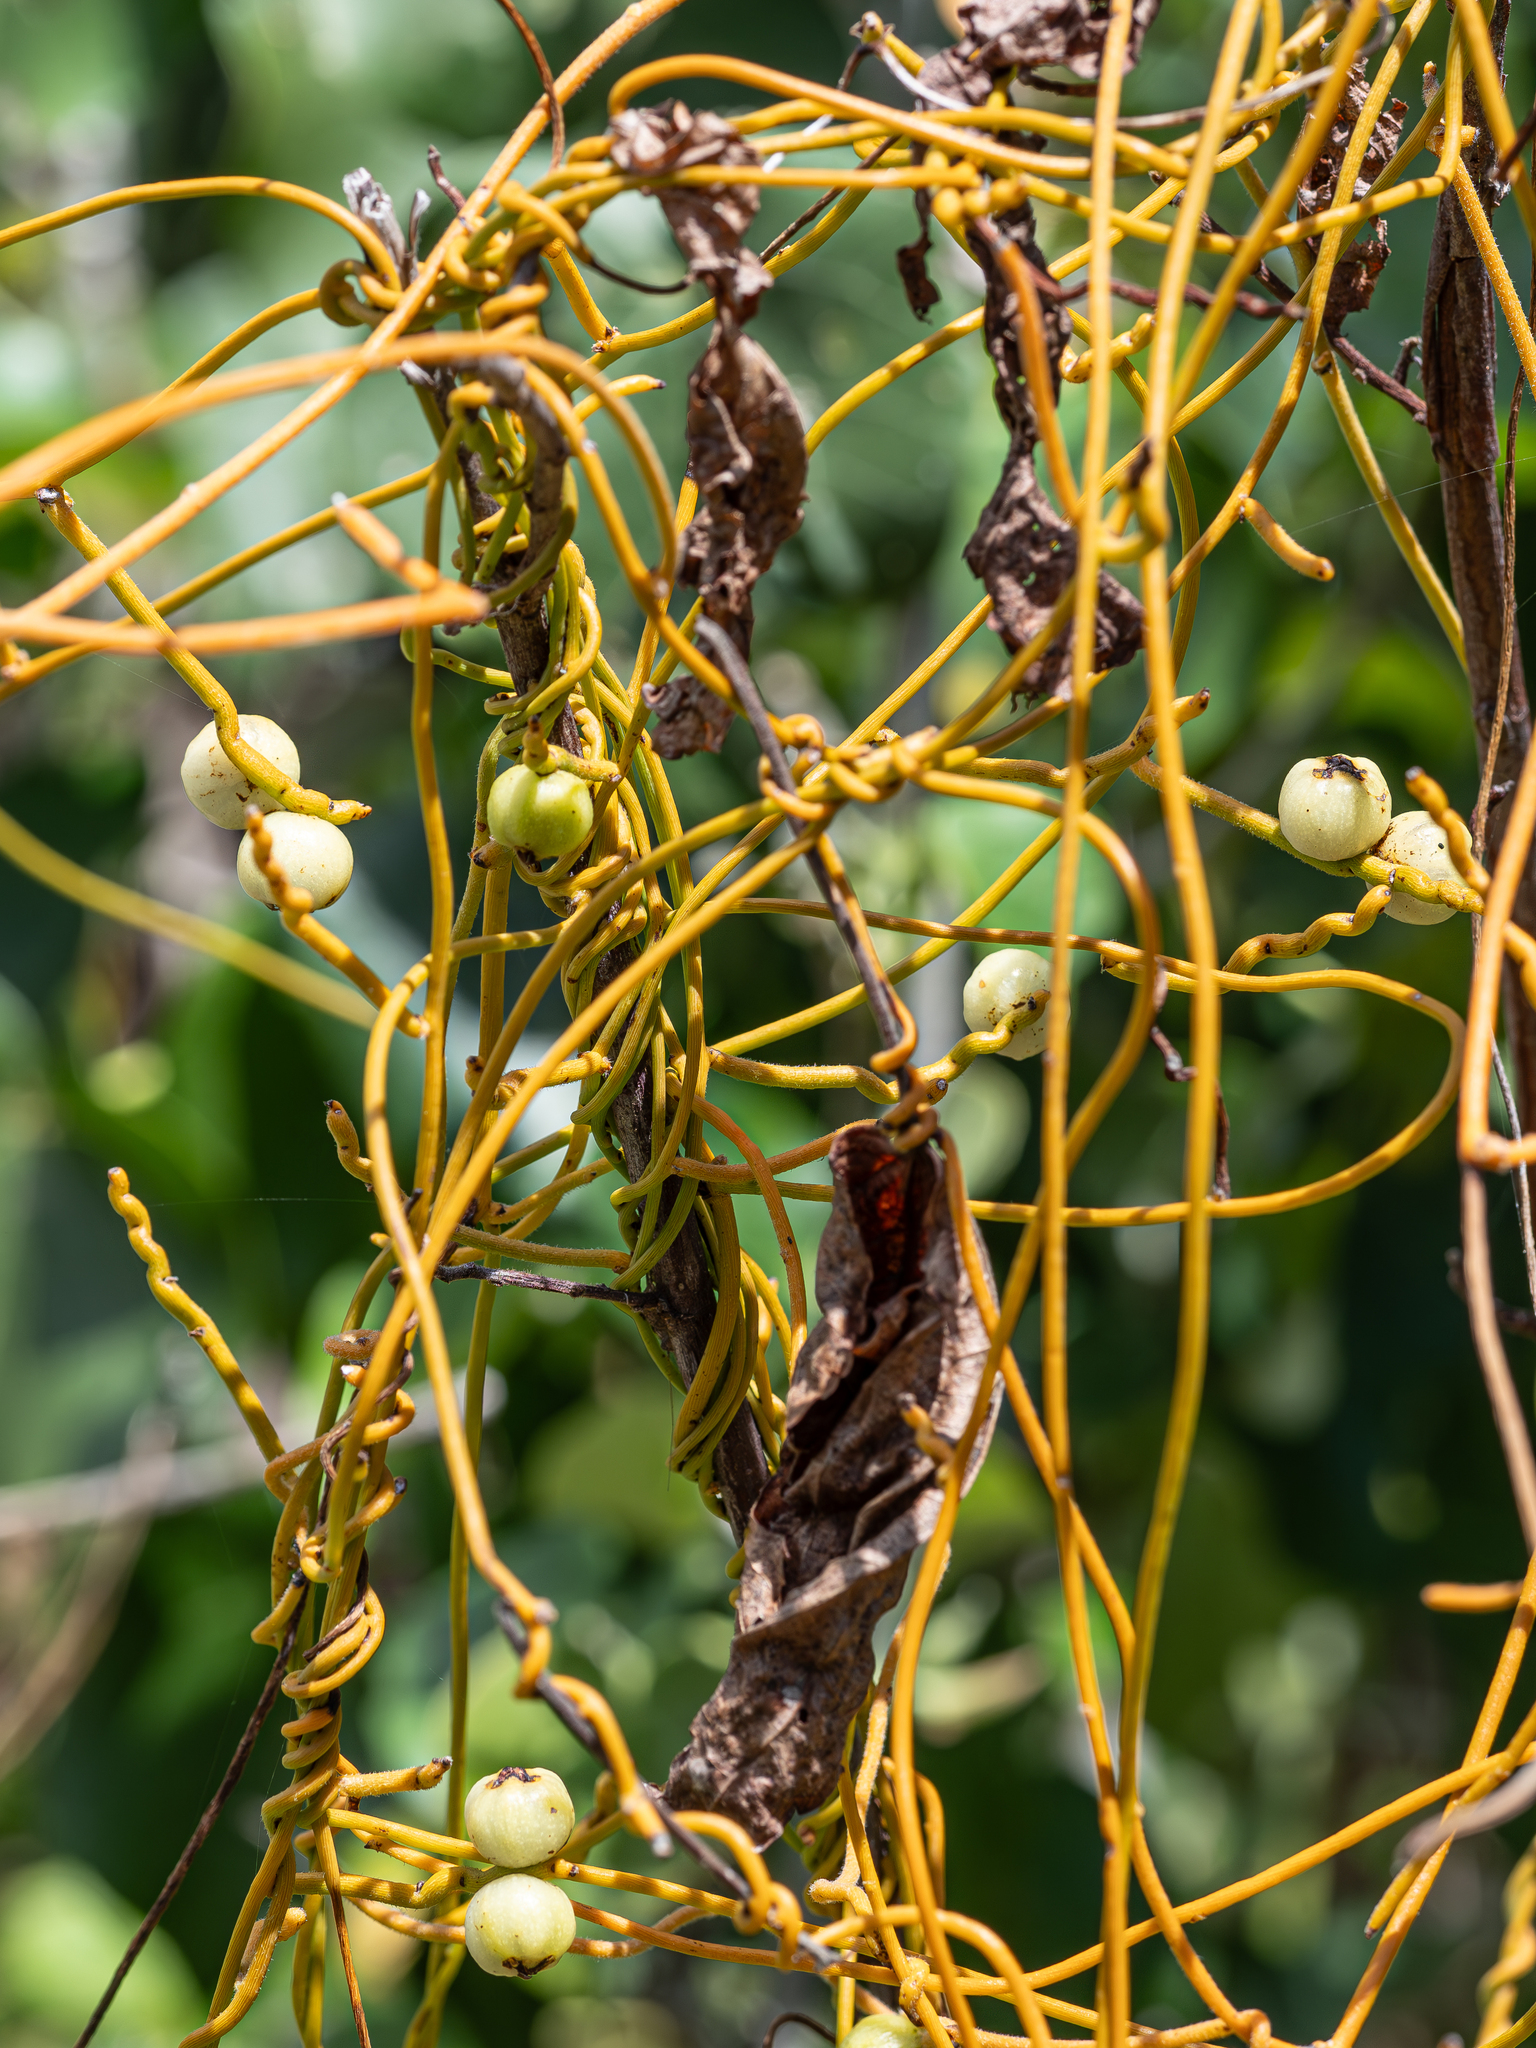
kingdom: Plantae
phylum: Tracheophyta
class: Magnoliopsida
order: Laurales
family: Lauraceae
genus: Cassytha
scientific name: Cassytha filiformis
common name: Dodder-laurel
